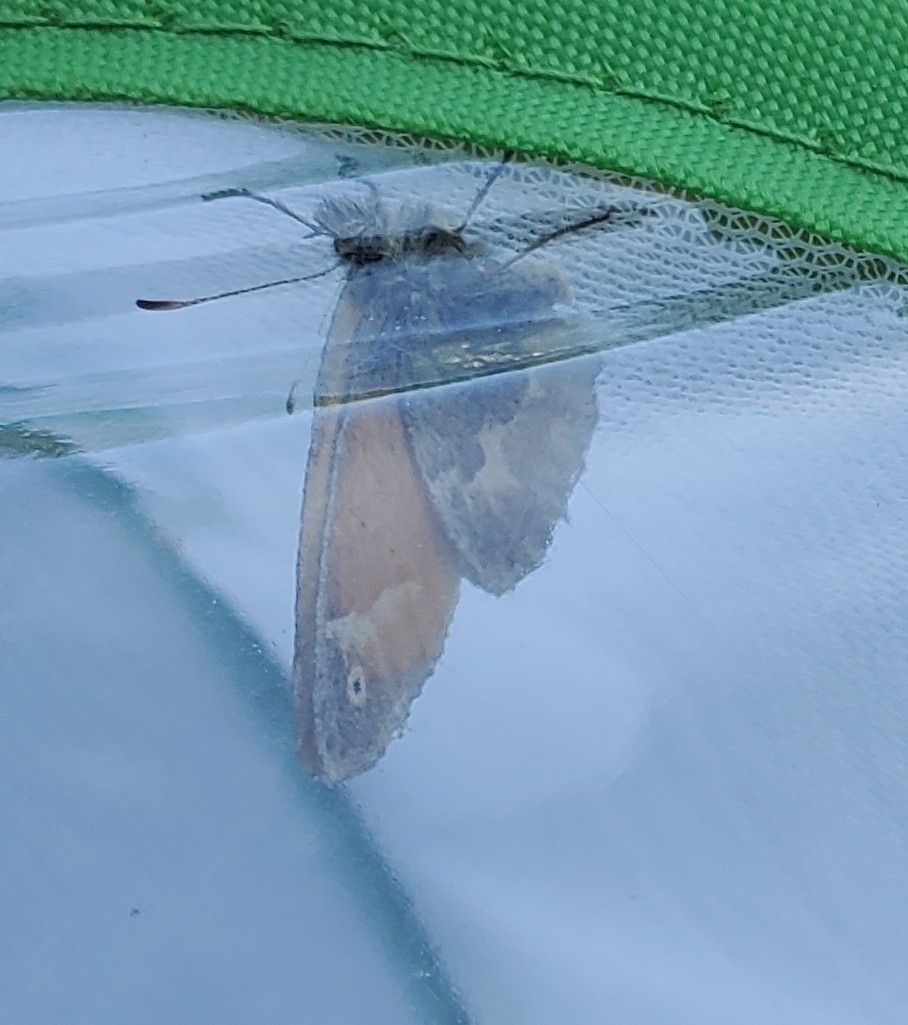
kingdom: Animalia
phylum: Arthropoda
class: Insecta
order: Lepidoptera
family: Nymphalidae
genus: Coenonympha
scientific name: Coenonympha california
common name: Common ringlet
